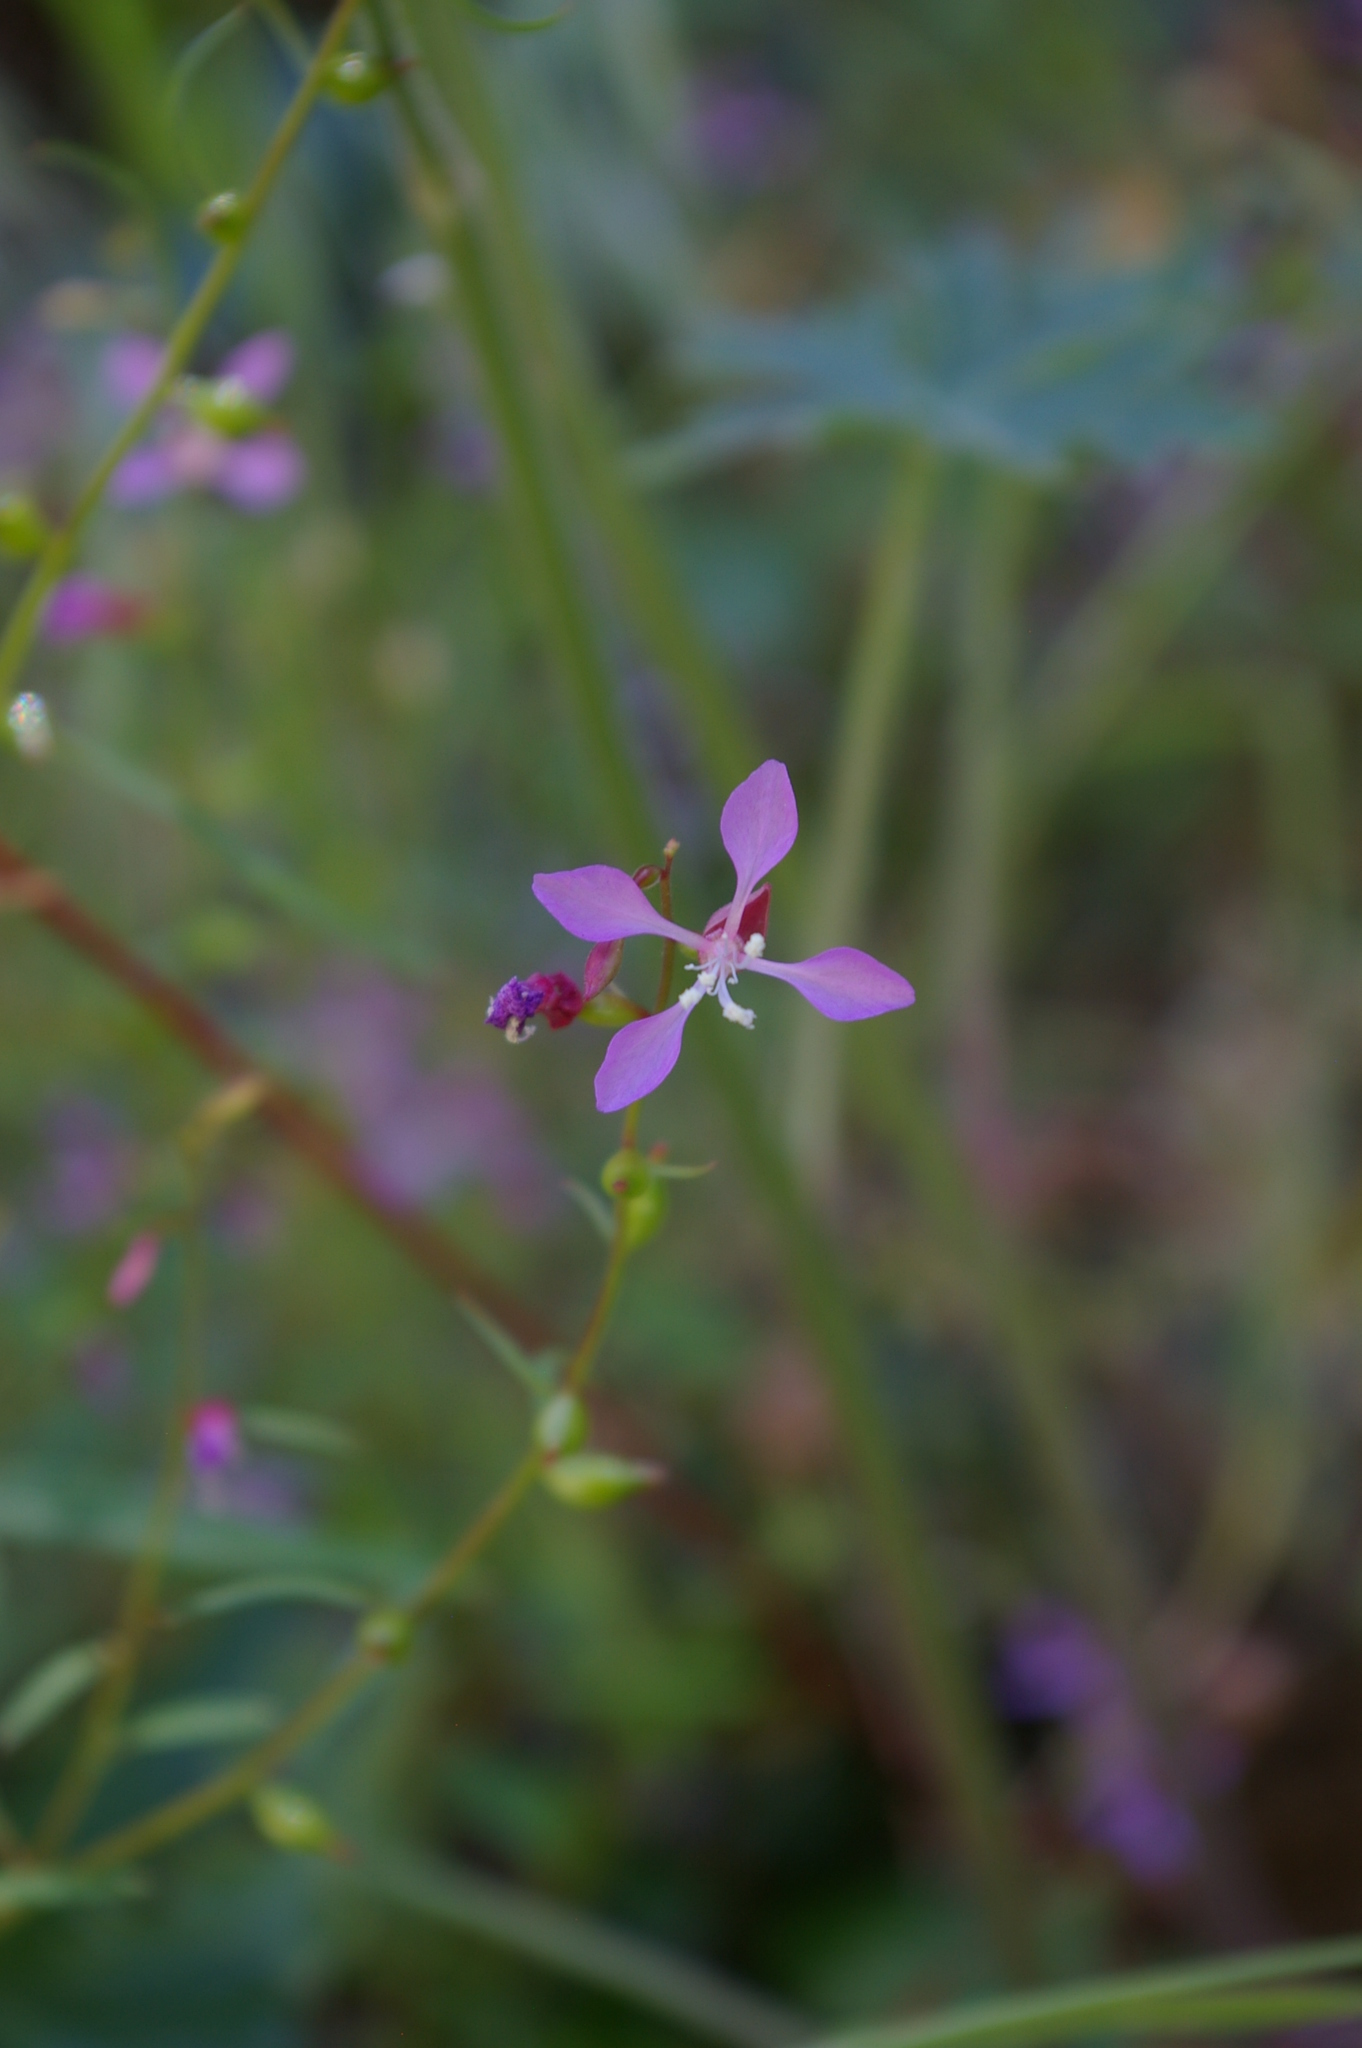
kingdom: Plantae
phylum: Tracheophyta
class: Magnoliopsida
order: Myrtales
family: Onagraceae
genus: Clarkia
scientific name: Clarkia heterandra
